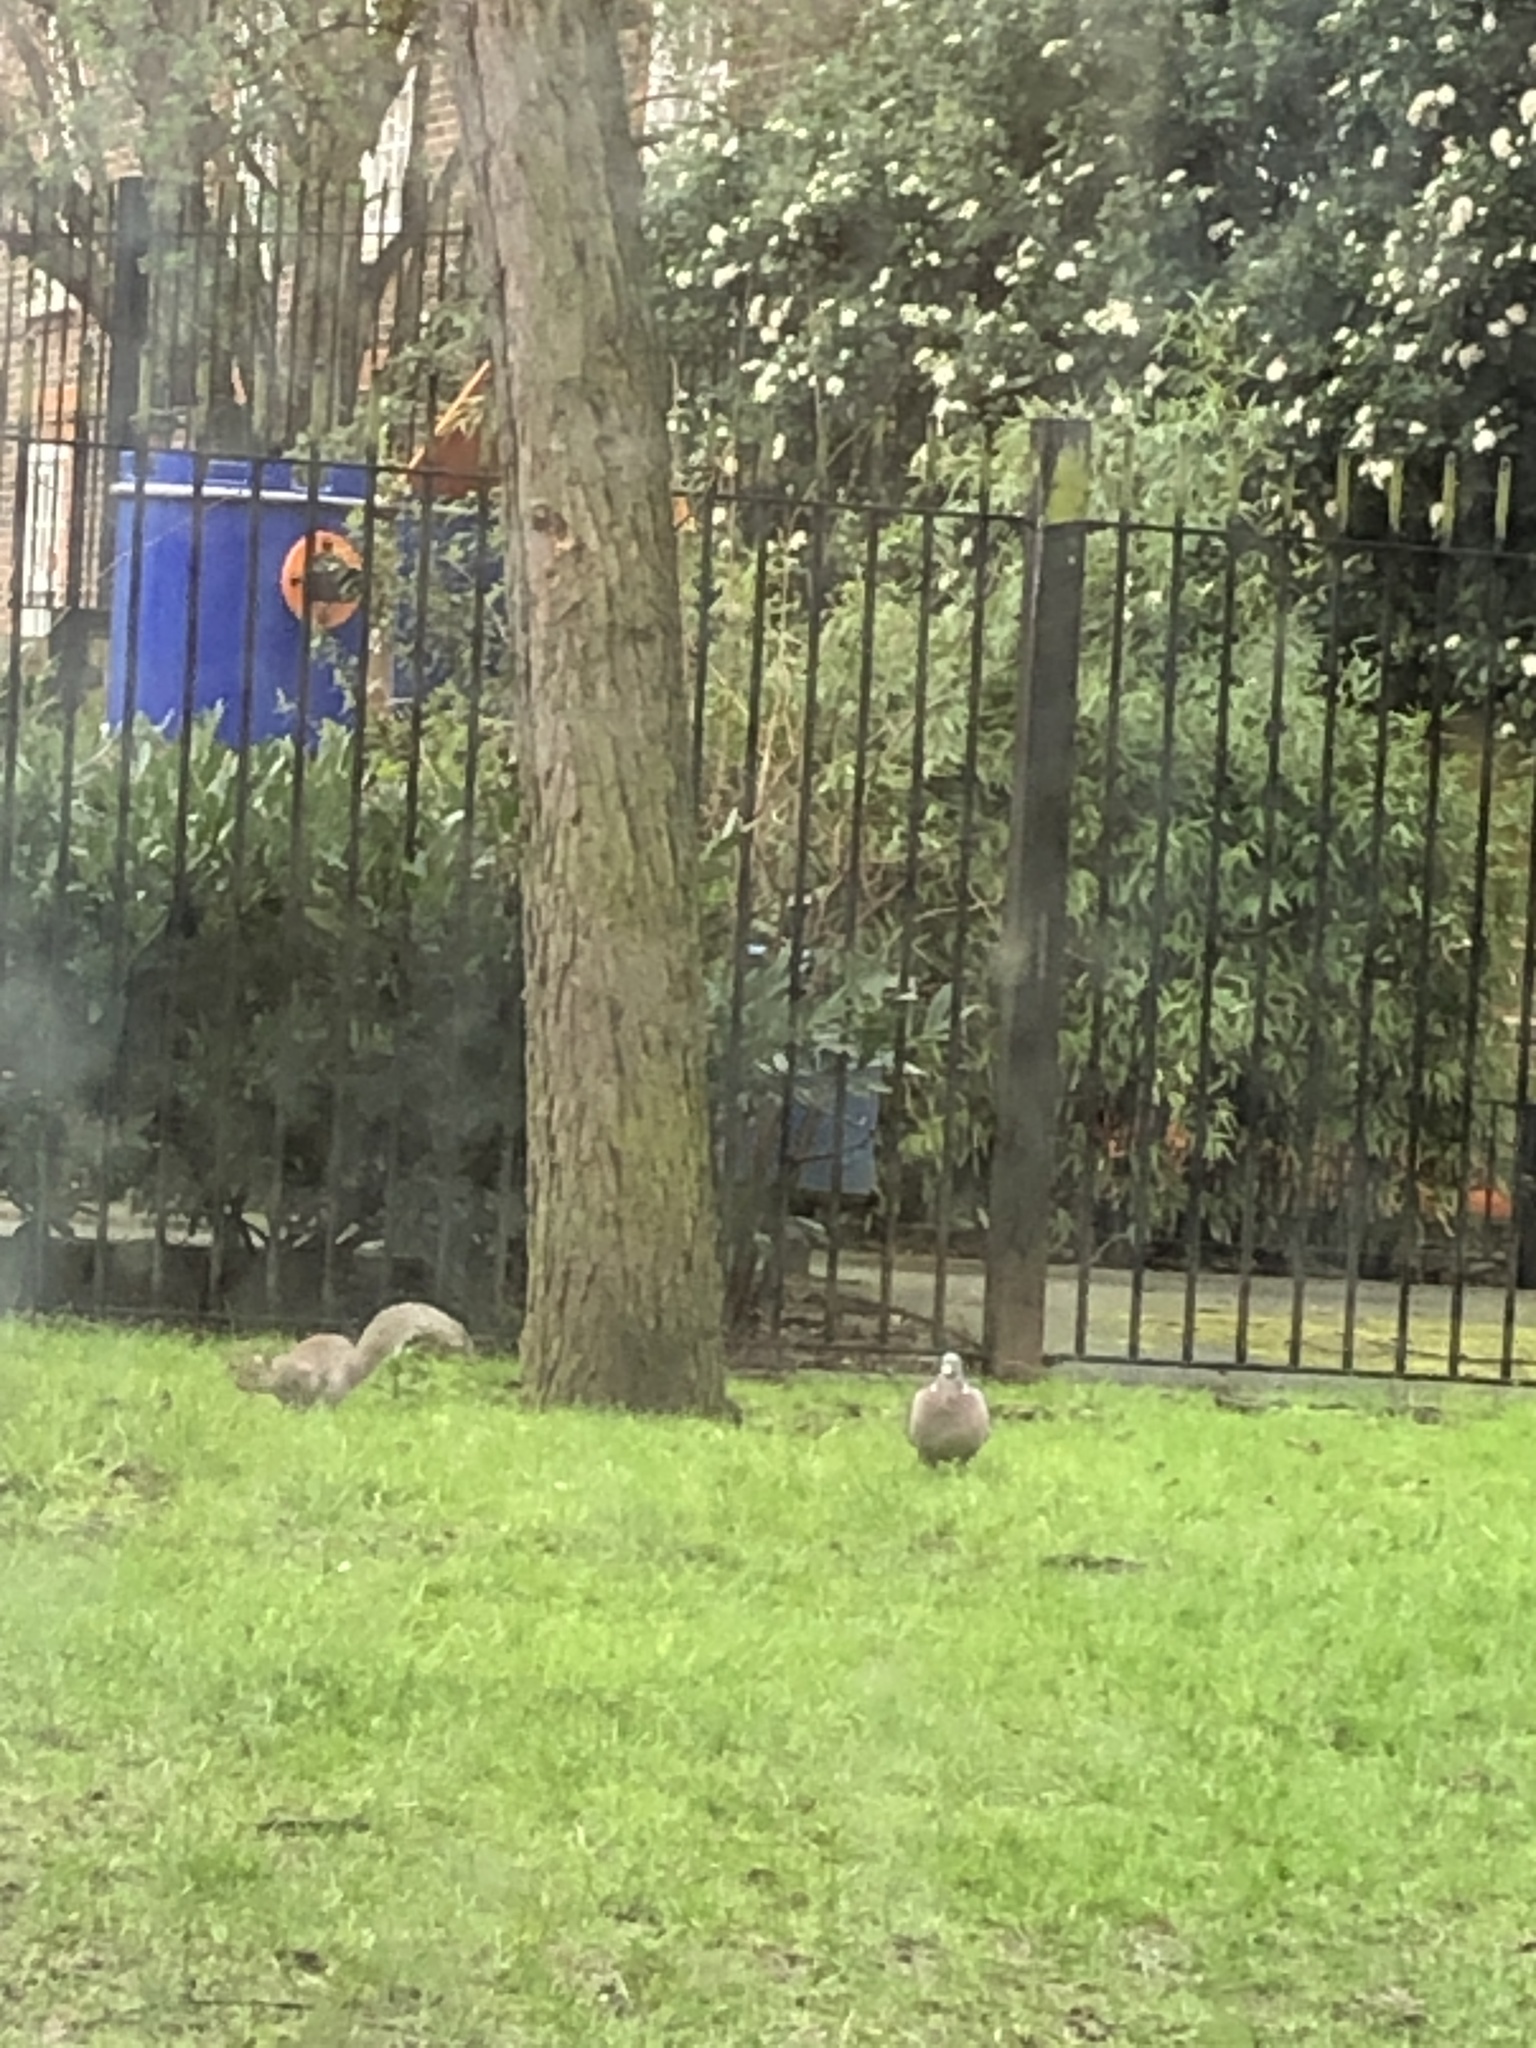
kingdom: Animalia
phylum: Chordata
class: Mammalia
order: Rodentia
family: Sciuridae
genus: Sciurus
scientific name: Sciurus carolinensis
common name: Eastern gray squirrel
